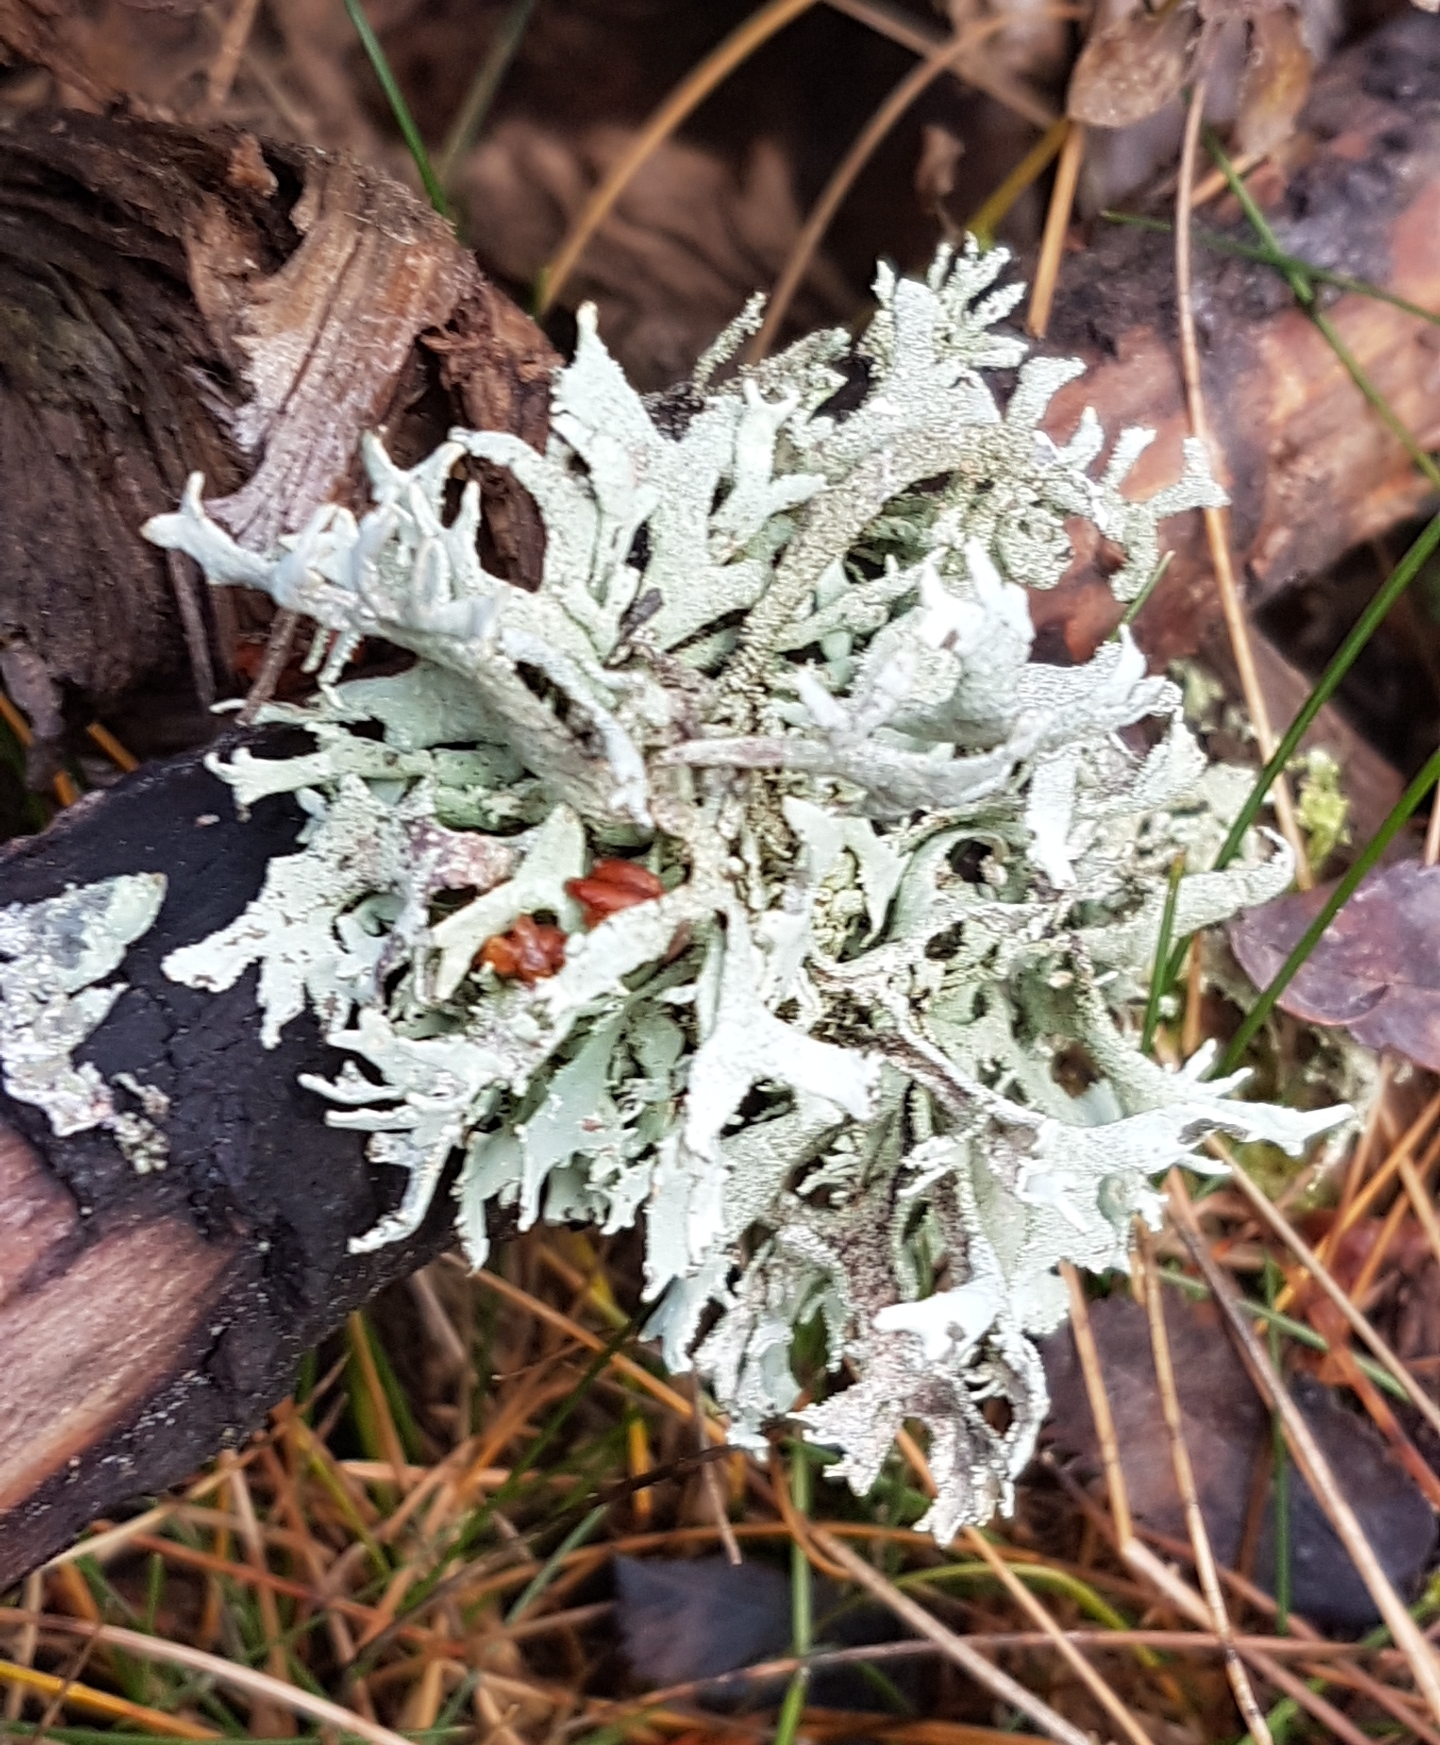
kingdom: Fungi
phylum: Ascomycota
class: Lecanoromycetes
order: Lecanorales
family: Parmeliaceae
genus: Pseudevernia
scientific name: Pseudevernia furfuracea
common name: Tree moss
